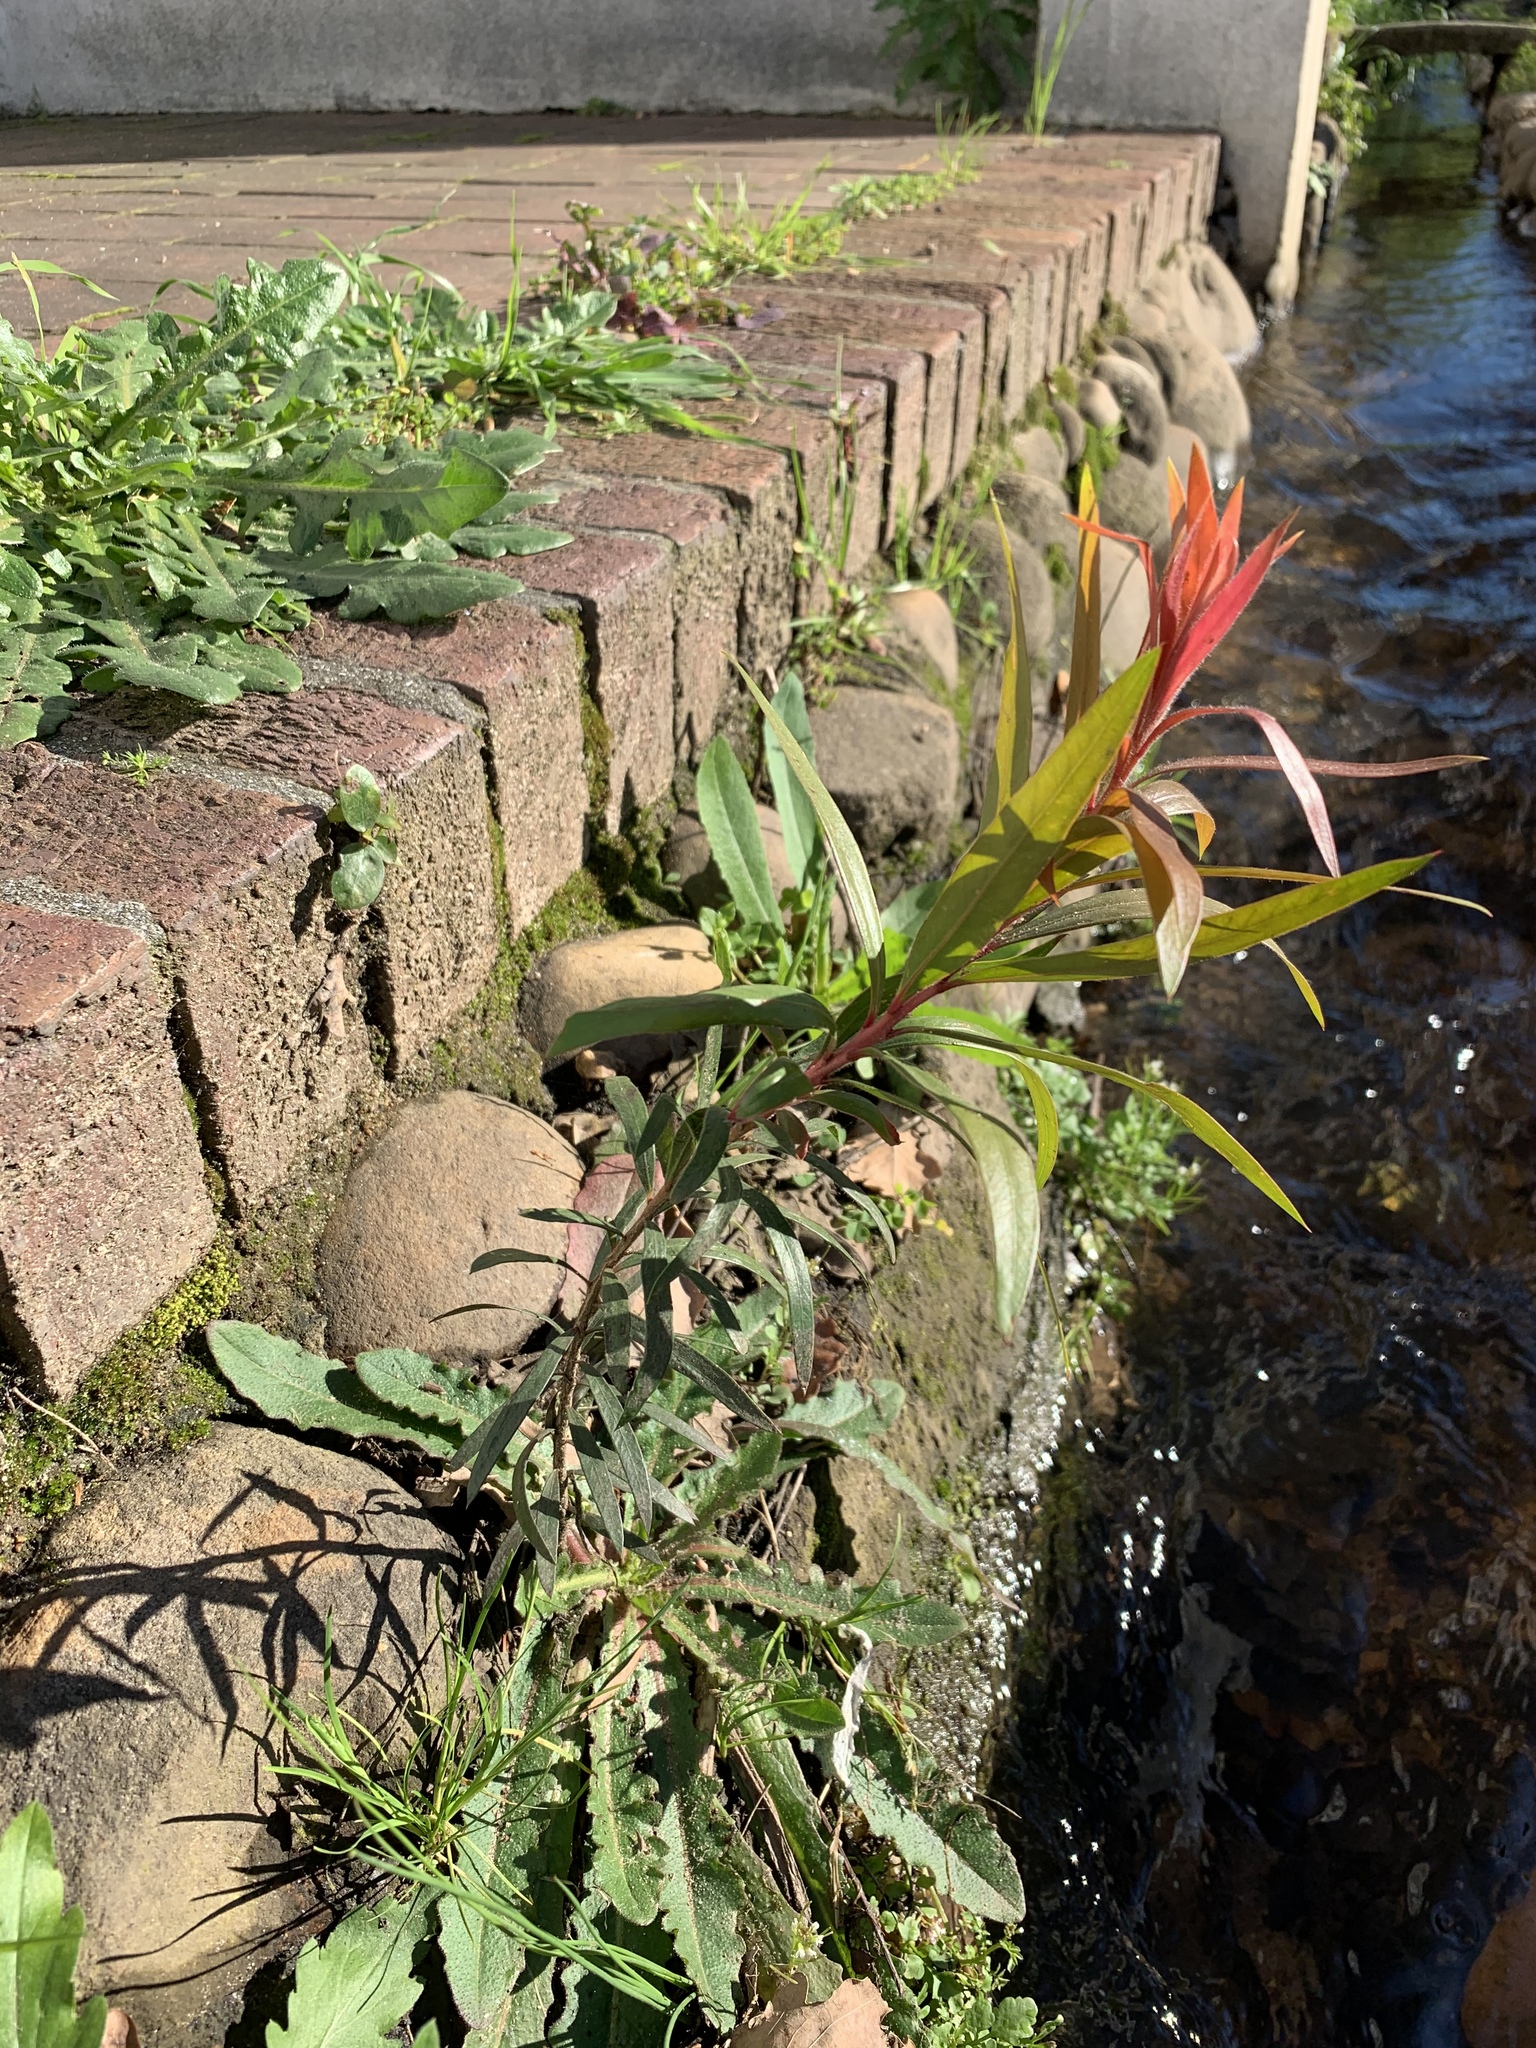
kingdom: Plantae
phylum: Tracheophyta
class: Magnoliopsida
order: Myrtales
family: Myrtaceae
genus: Callistemon
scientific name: Callistemon viminalis
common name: Drooping bottlebrush
